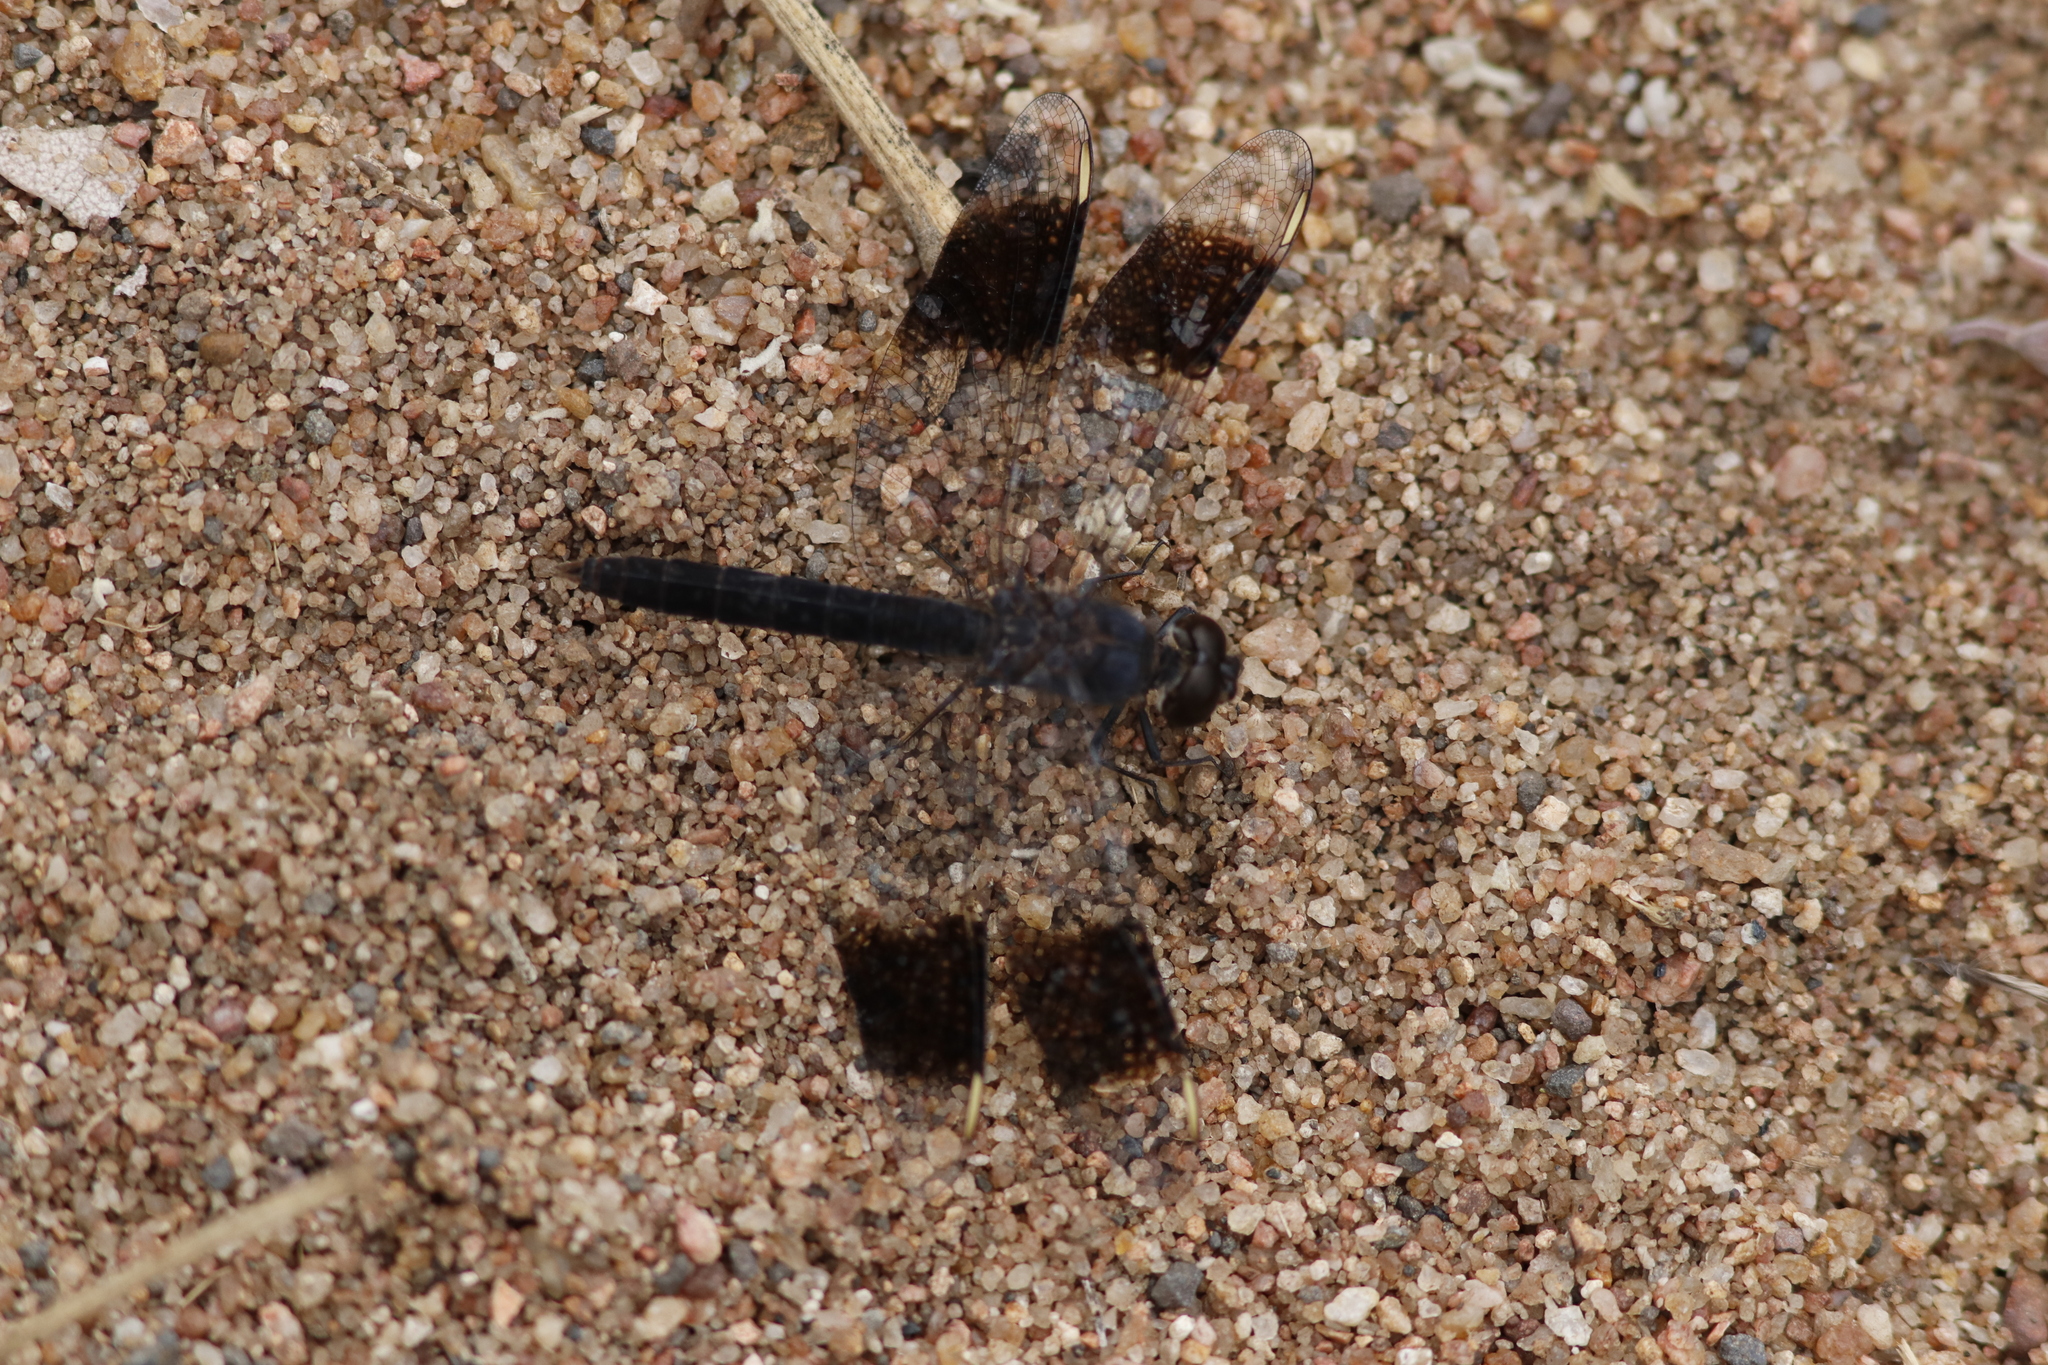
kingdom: Animalia
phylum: Arthropoda
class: Insecta
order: Odonata
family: Libellulidae
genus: Brachythemis
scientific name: Brachythemis leucosticta
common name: Banded groundling
